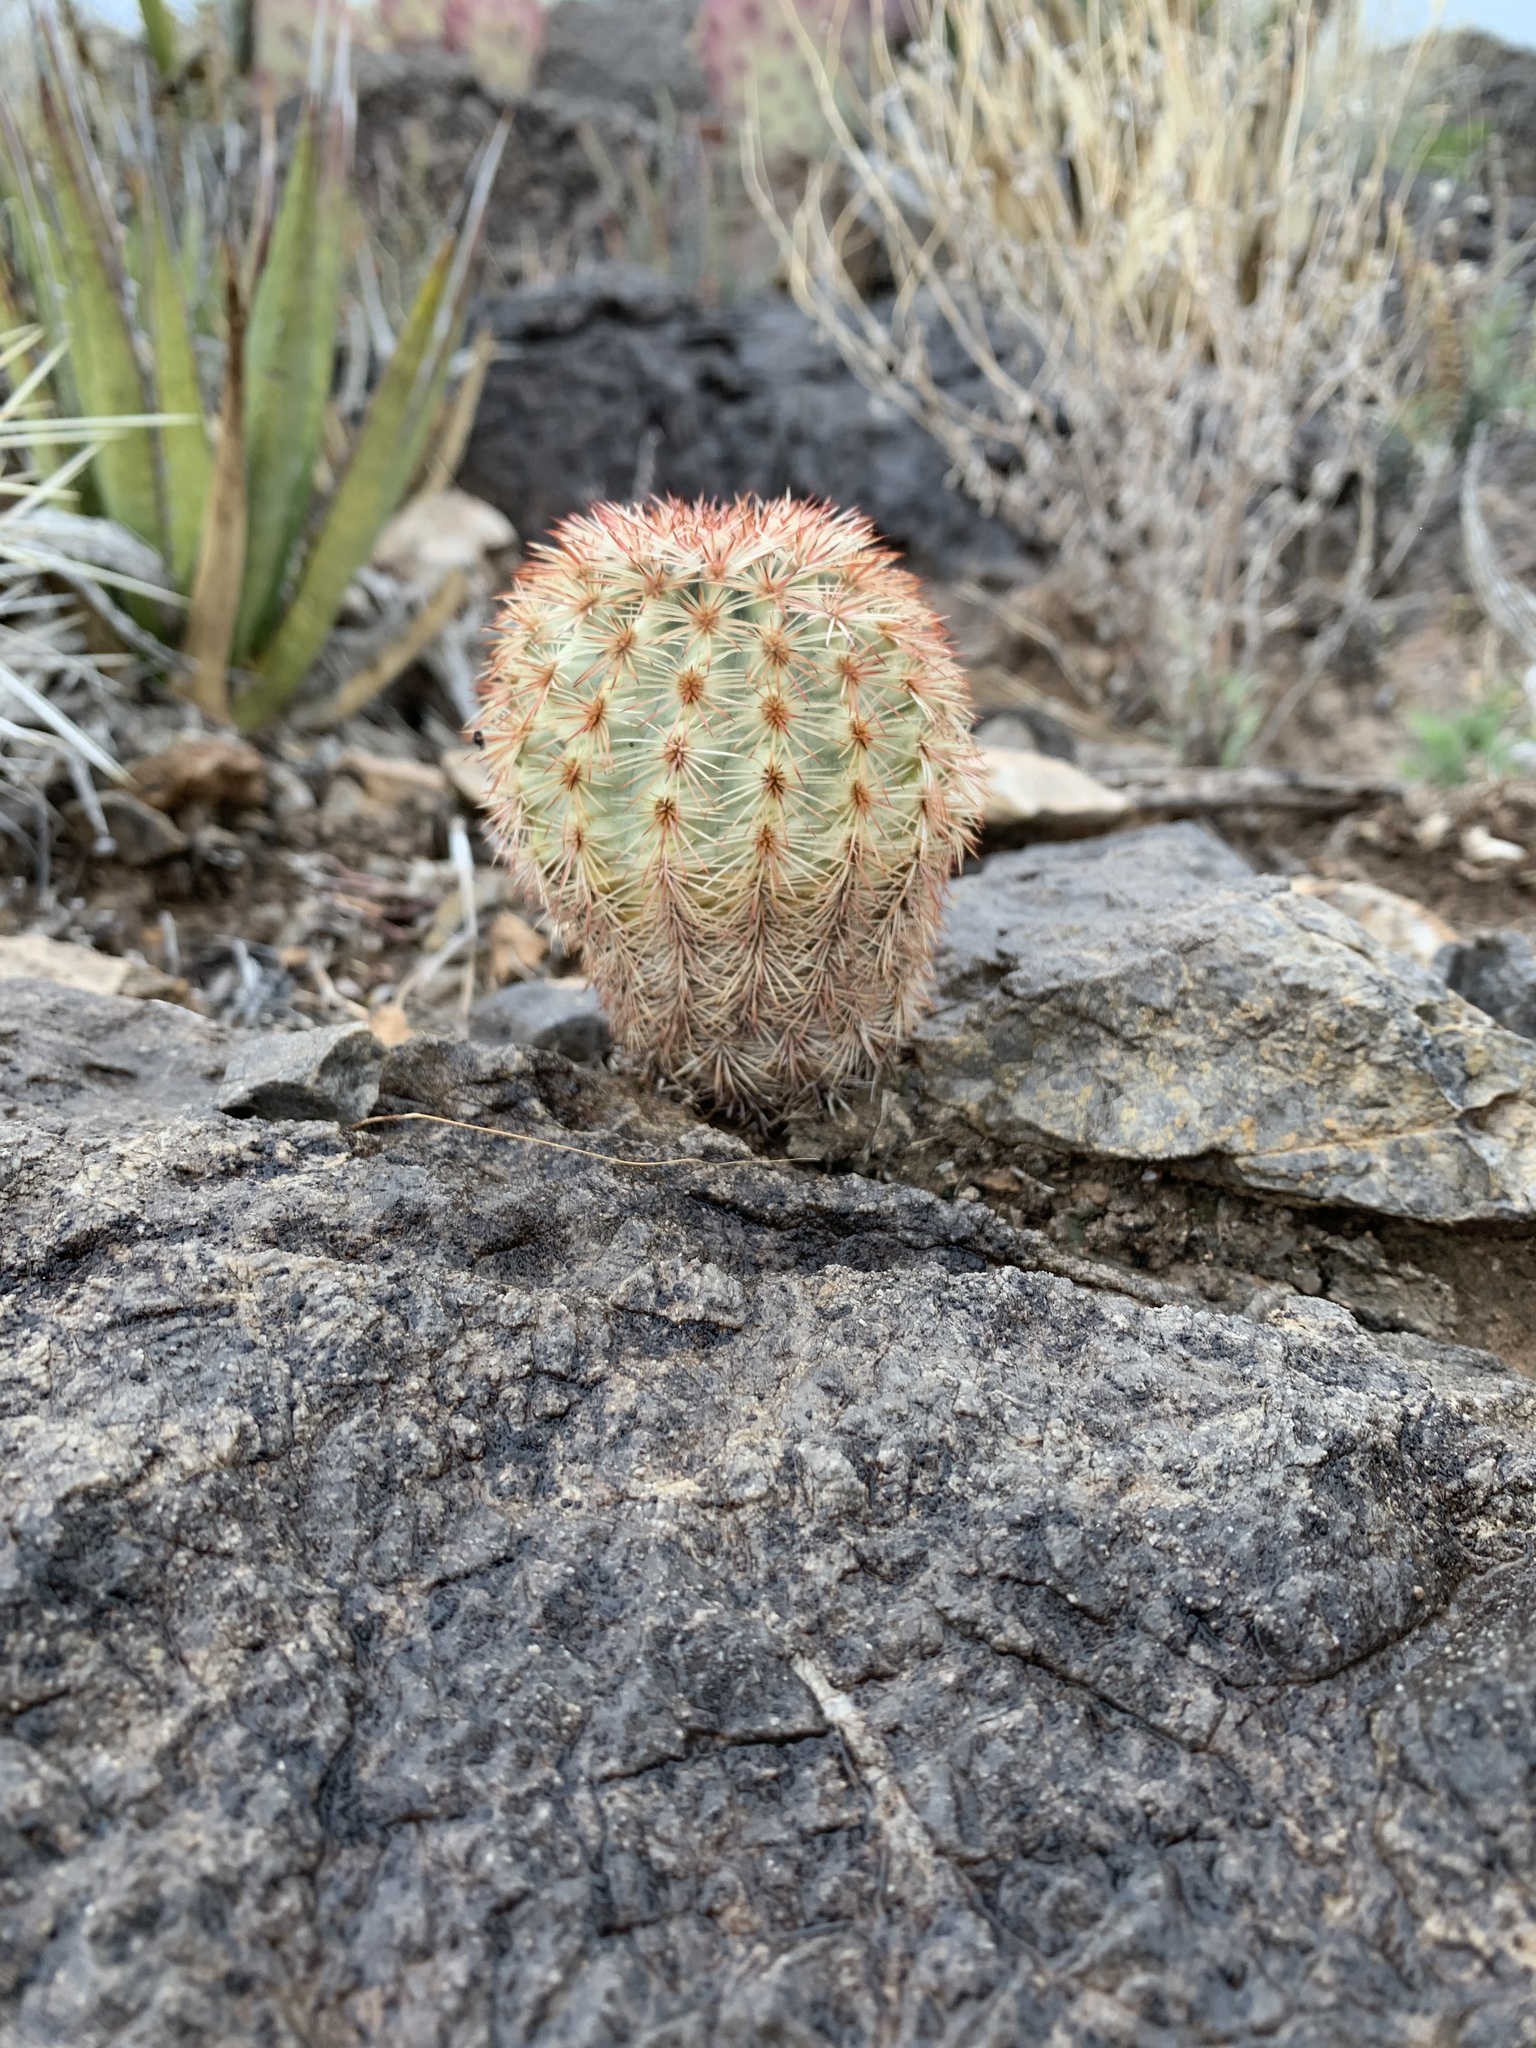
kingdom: Plantae
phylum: Tracheophyta
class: Magnoliopsida
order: Caryophyllales
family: Cactaceae
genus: Echinocereus
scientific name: Echinocereus dasyacanthus
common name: Spiny hedgehog cactus
